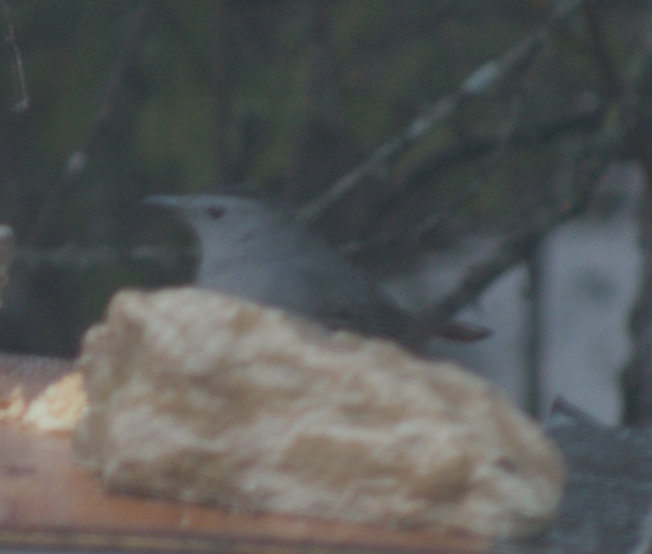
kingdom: Animalia
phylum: Chordata
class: Aves
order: Passeriformes
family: Mimidae
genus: Dumetella
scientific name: Dumetella carolinensis
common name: Gray catbird
